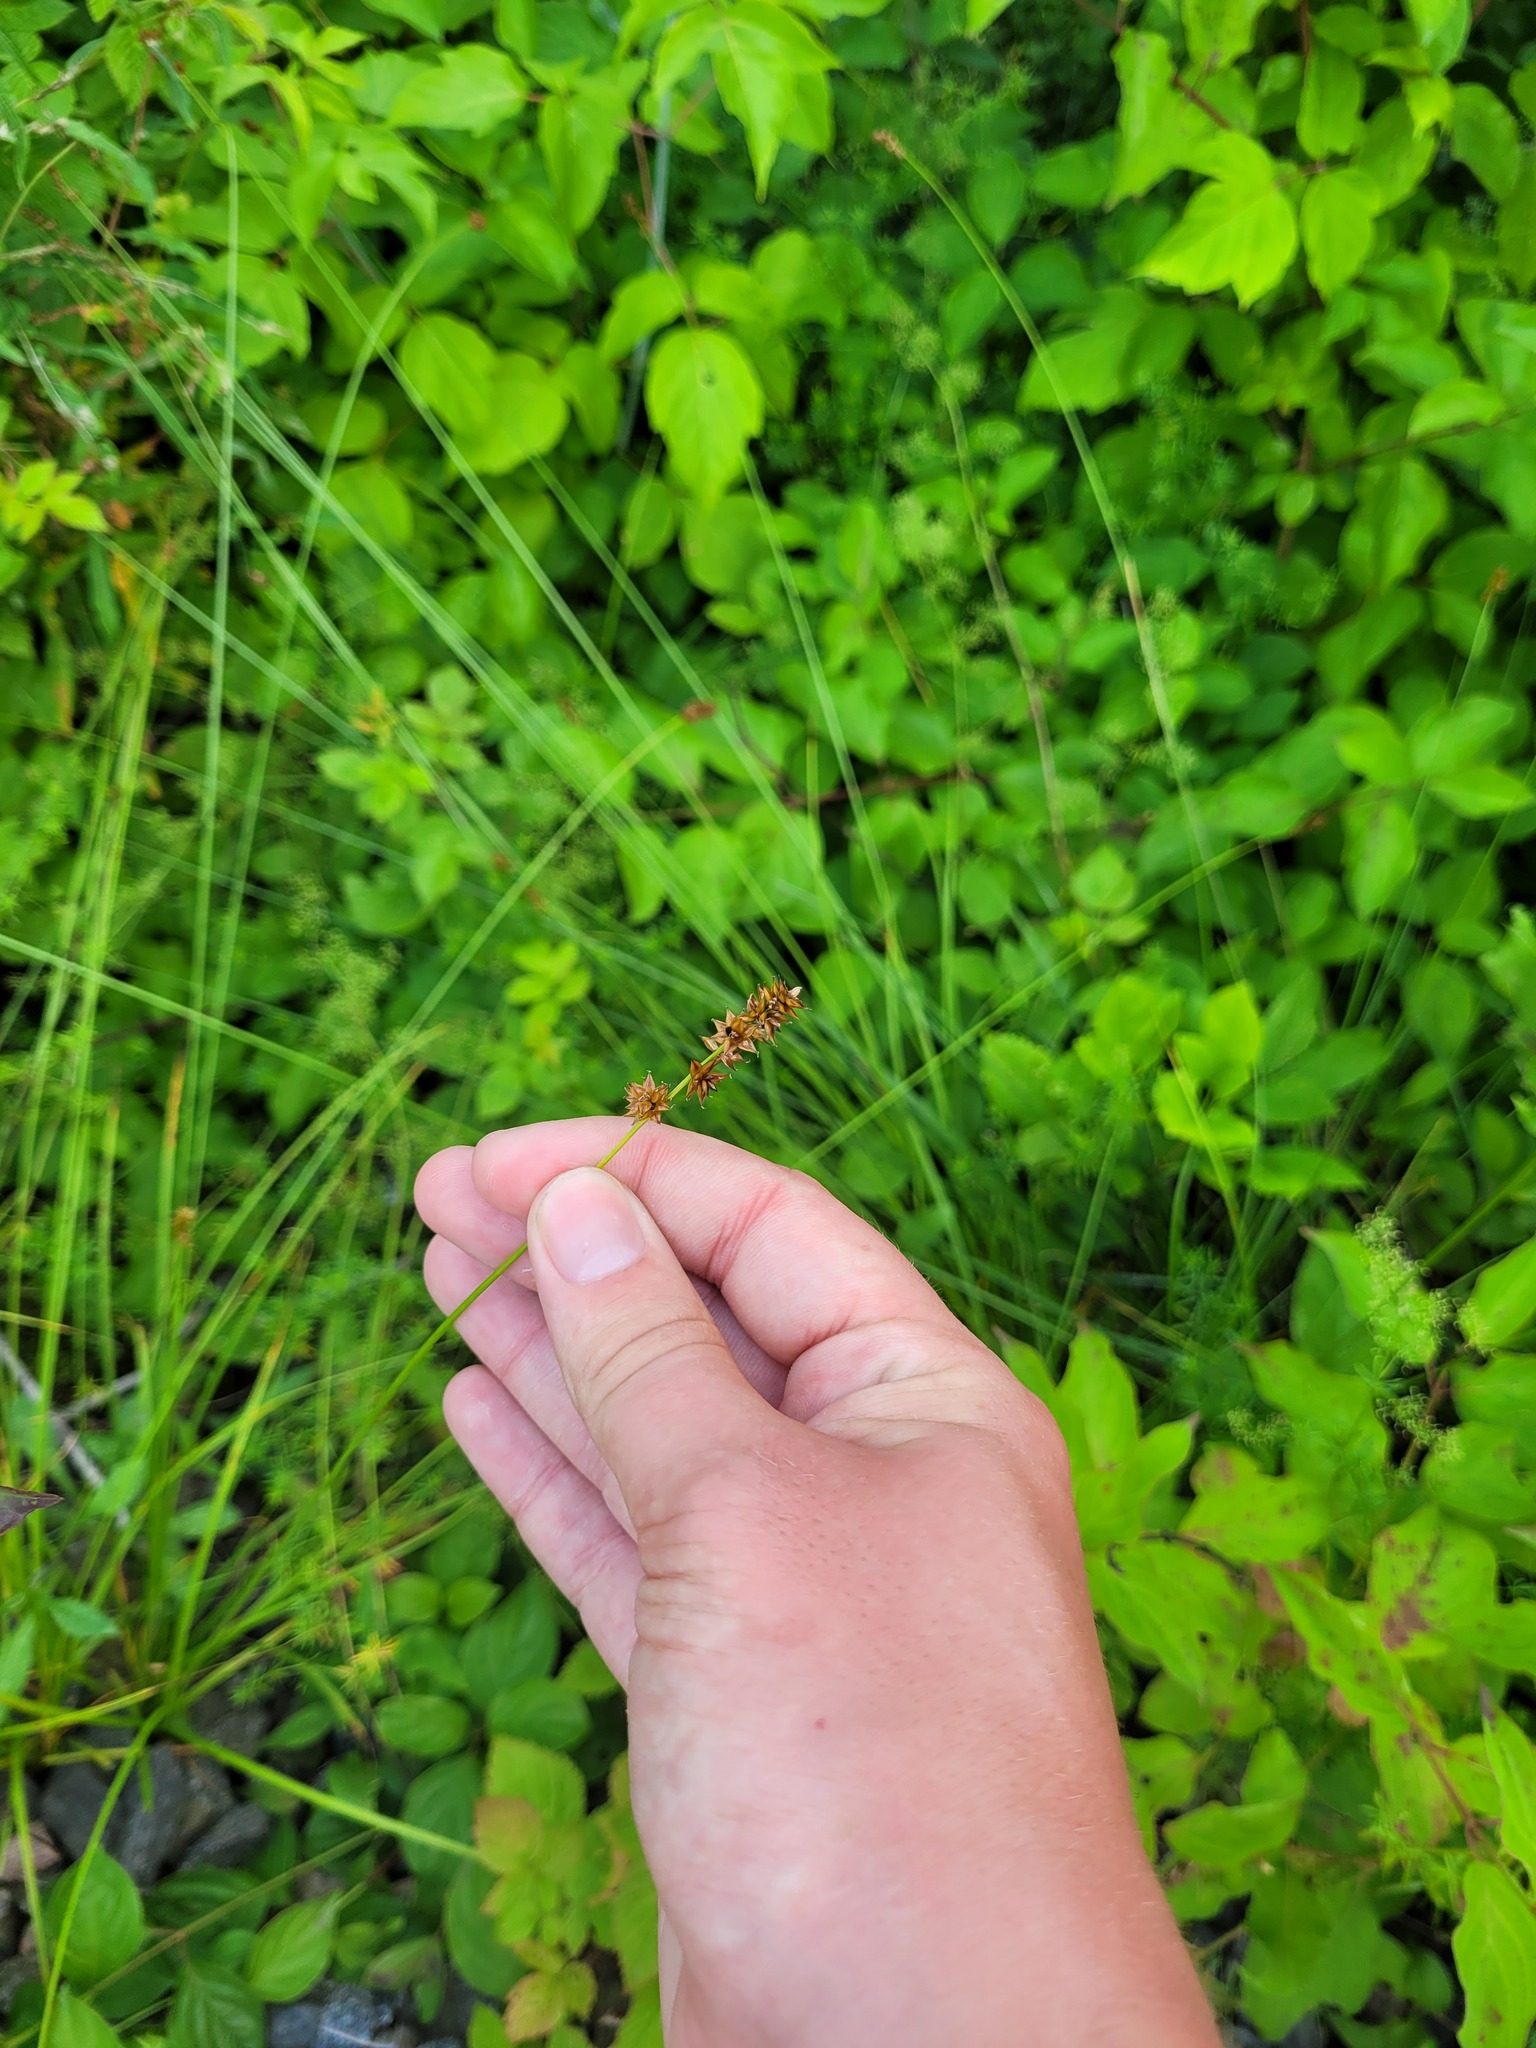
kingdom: Plantae
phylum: Tracheophyta
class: Liliopsida
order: Poales
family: Cyperaceae
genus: Carex
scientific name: Carex muricata
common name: Rough sedge
